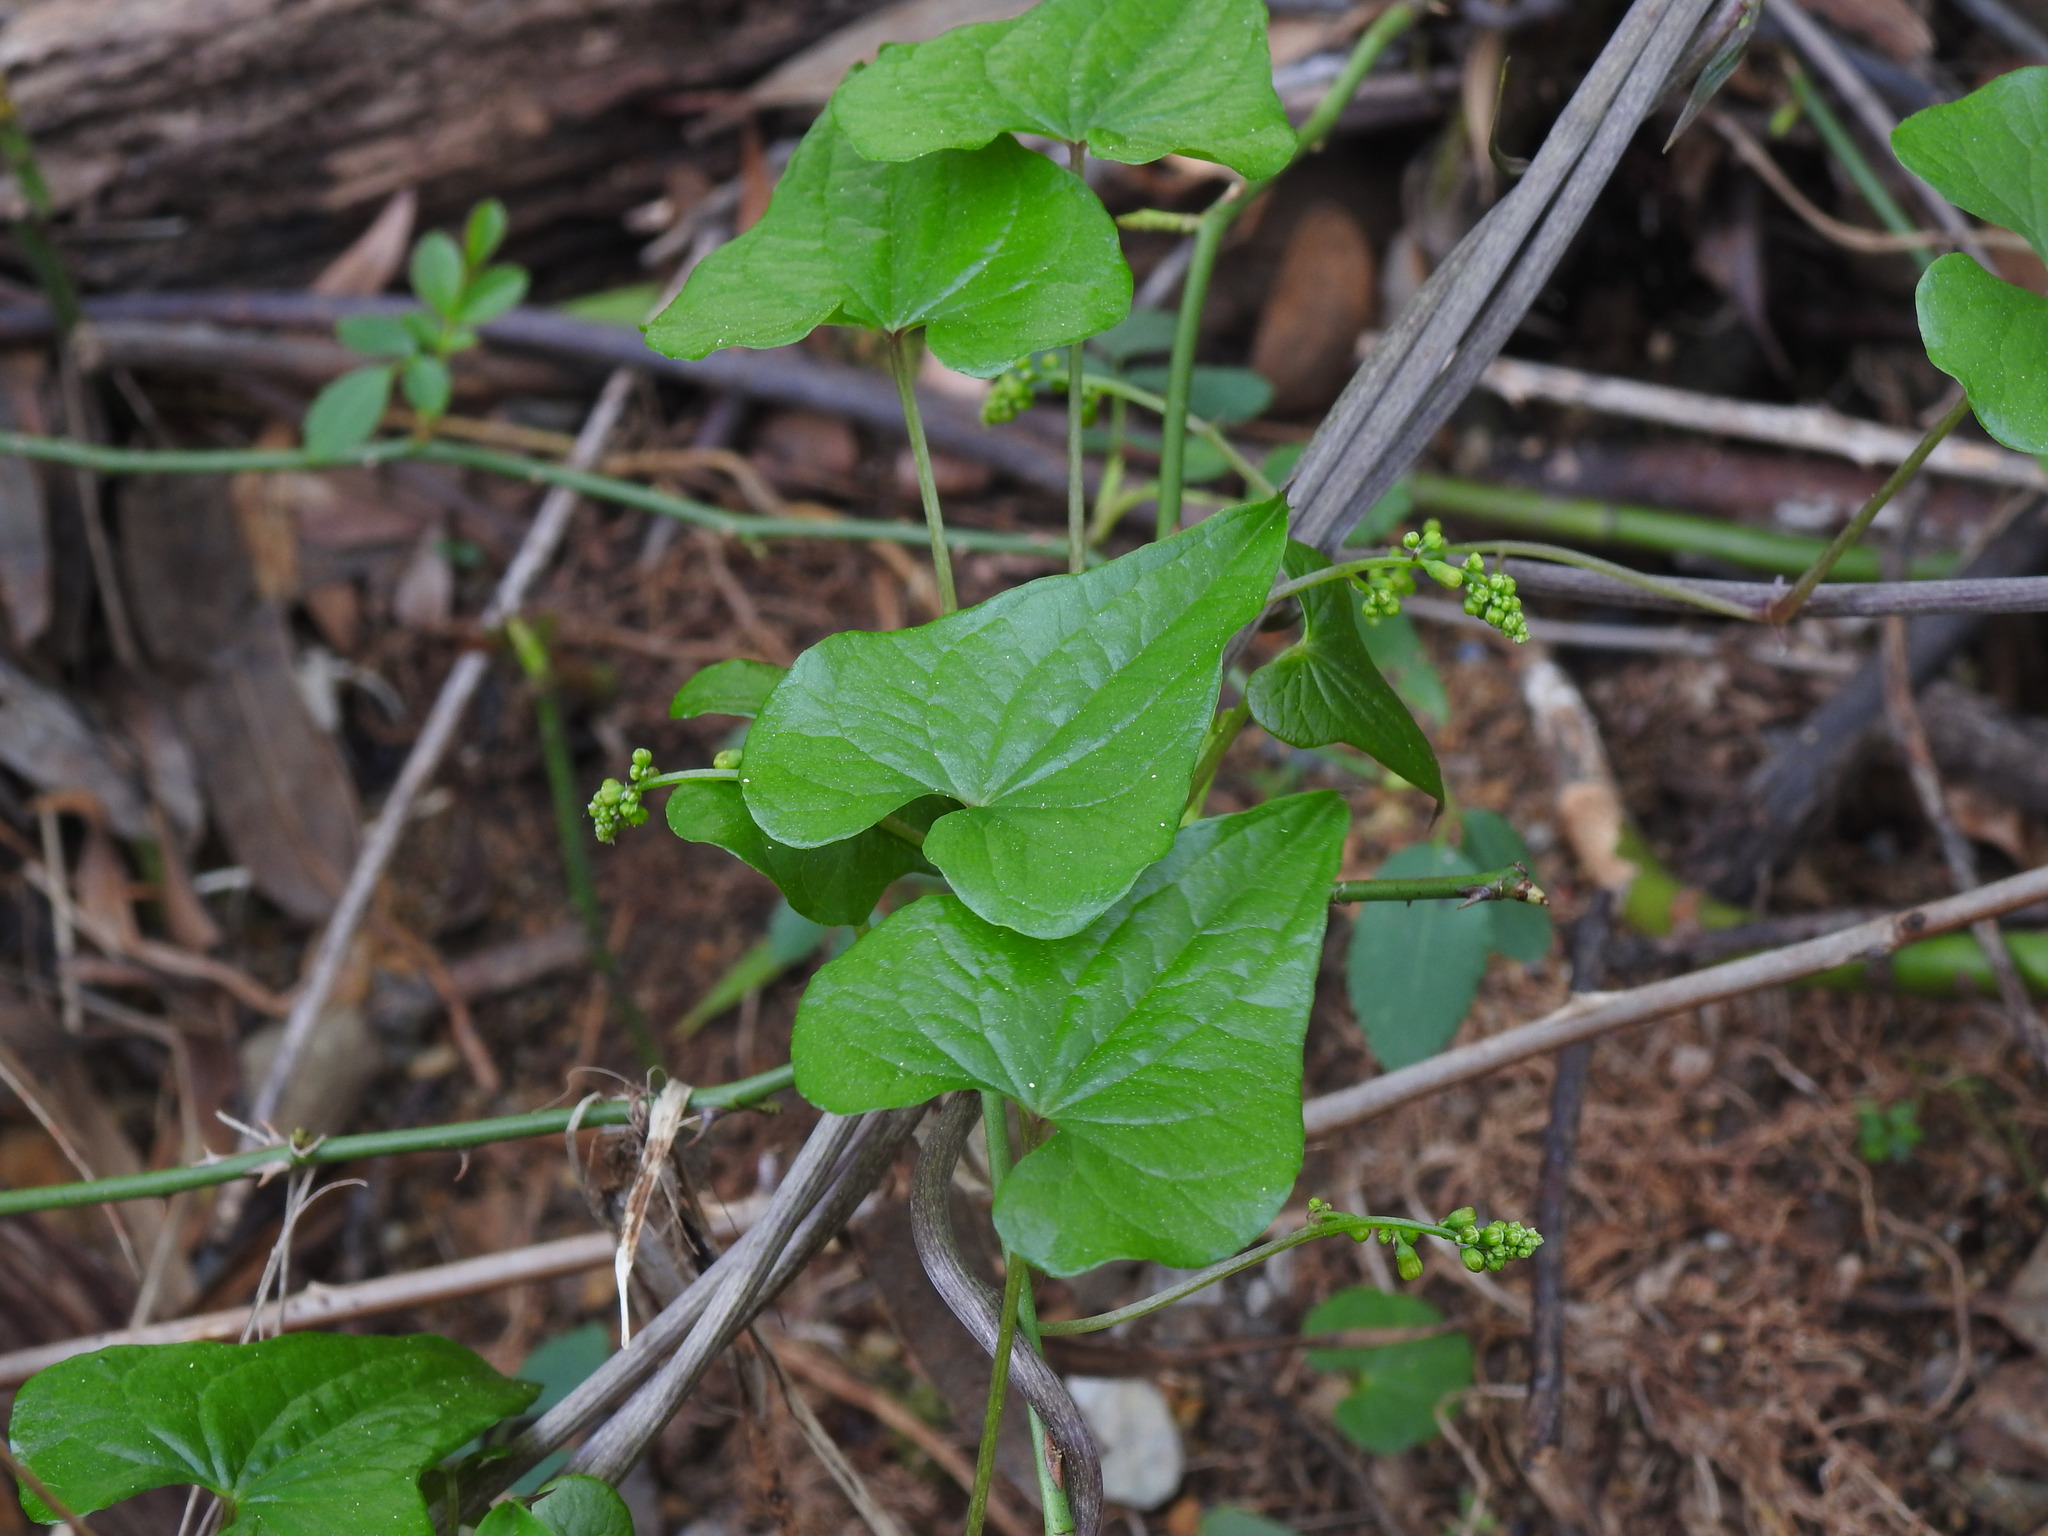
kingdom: Plantae
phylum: Tracheophyta
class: Liliopsida
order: Dioscoreales
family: Dioscoreaceae
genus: Dioscorea
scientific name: Dioscorea communis
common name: Black-bindweed
